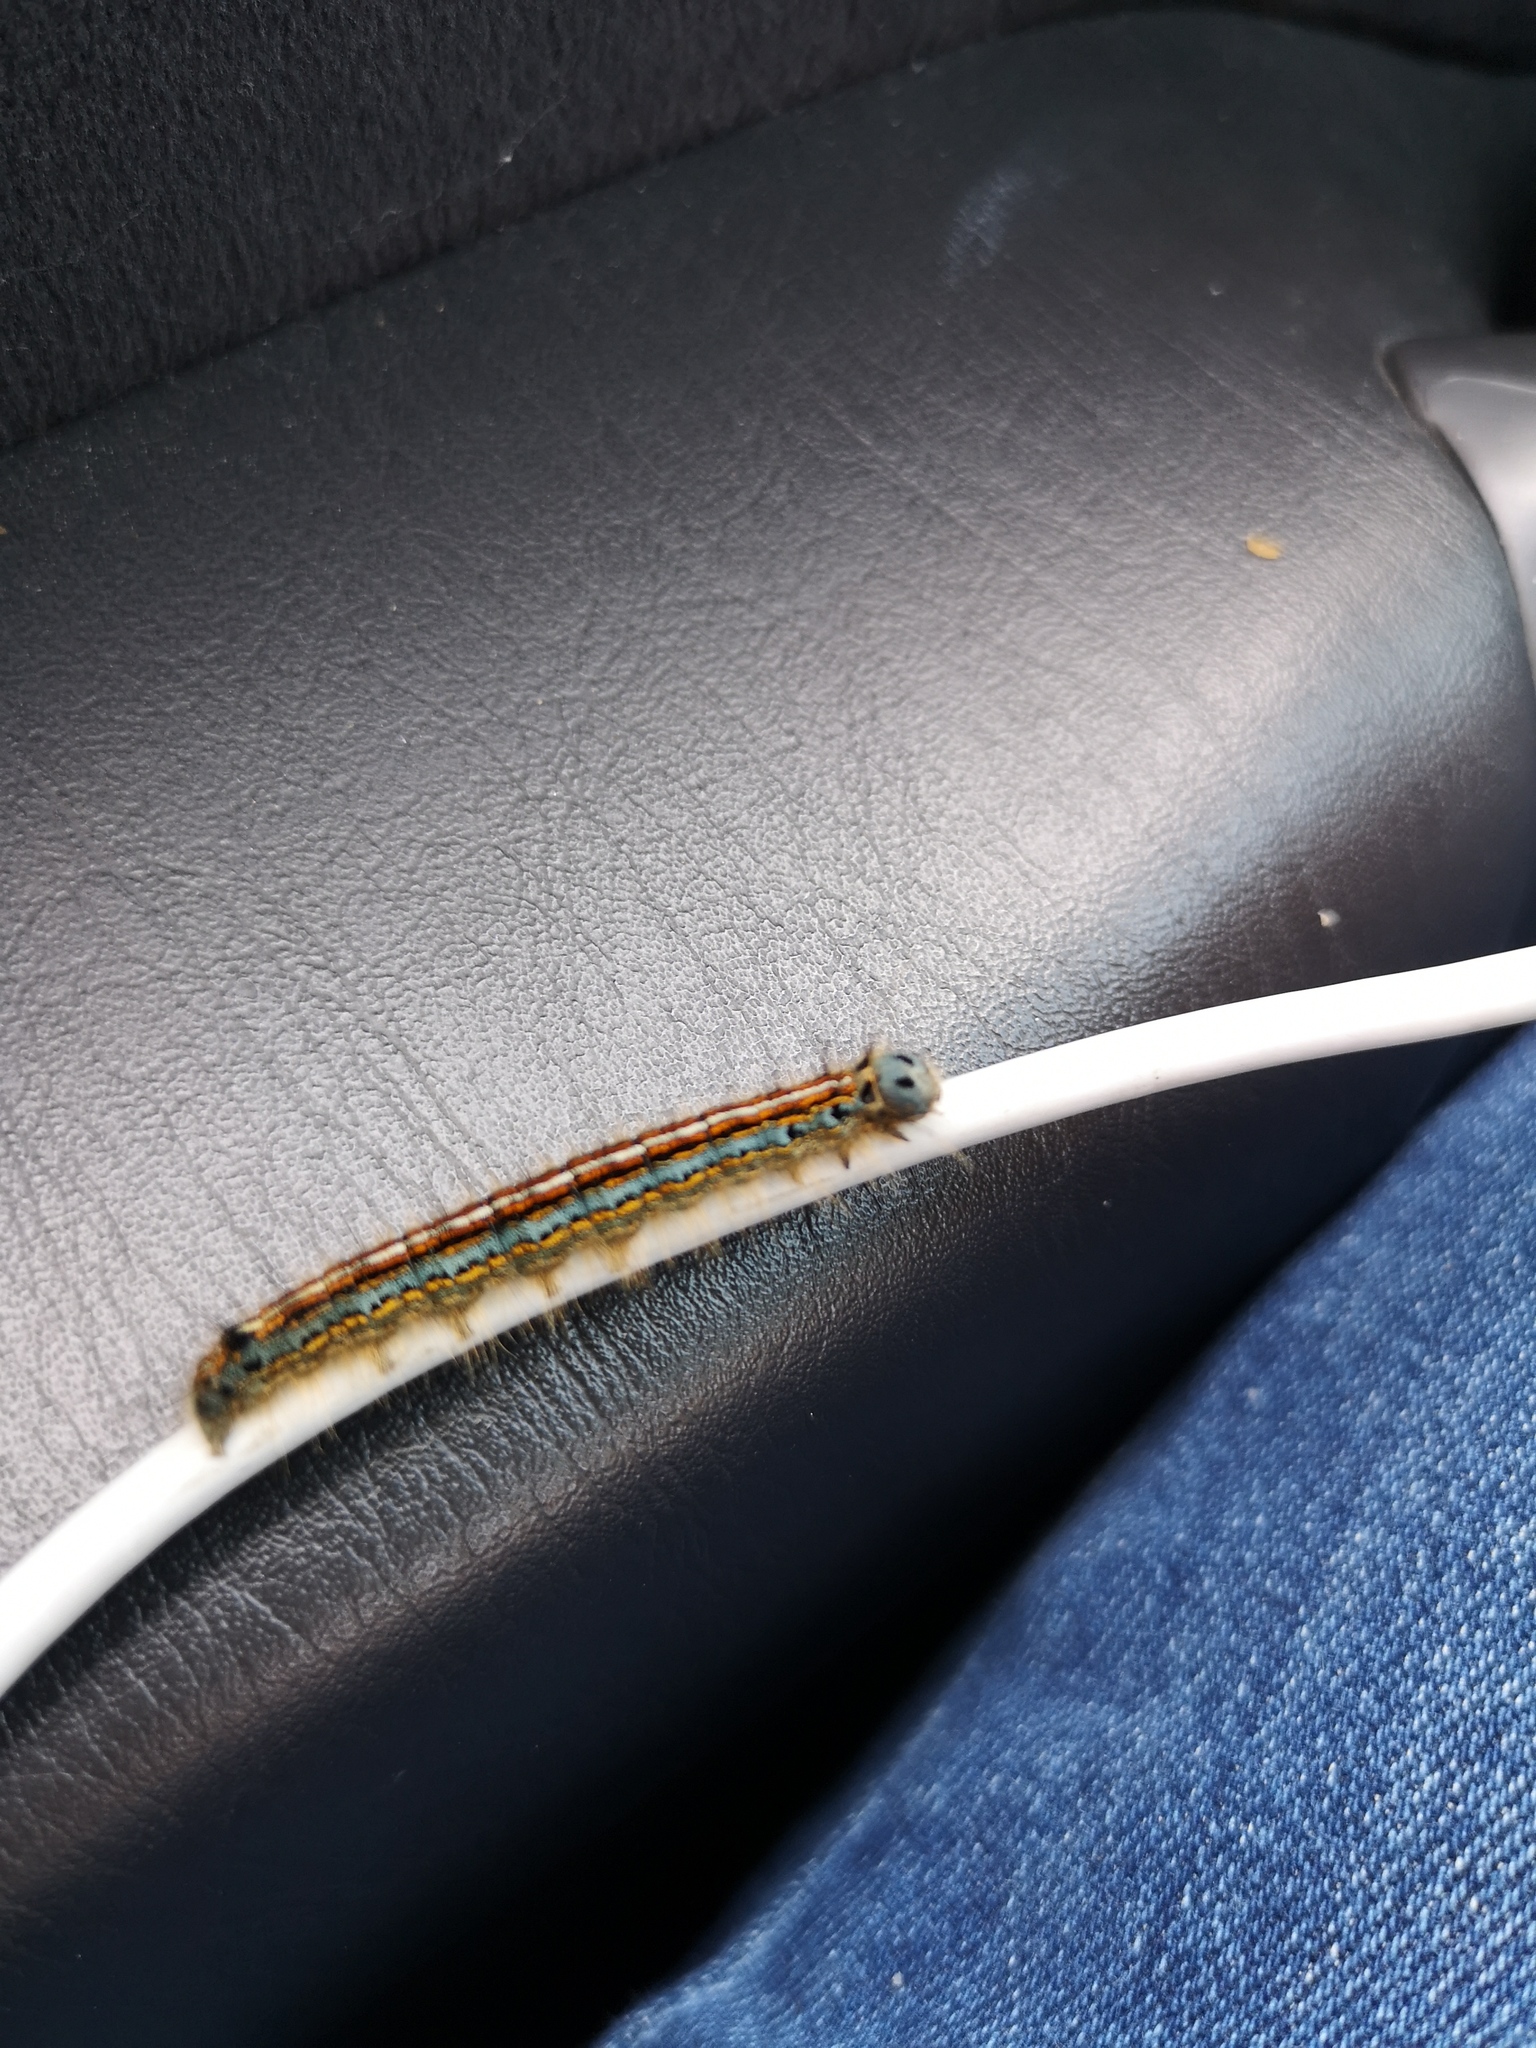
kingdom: Animalia
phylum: Arthropoda
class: Insecta
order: Lepidoptera
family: Lasiocampidae
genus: Malacosoma
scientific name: Malacosoma neustria
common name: The lackey
